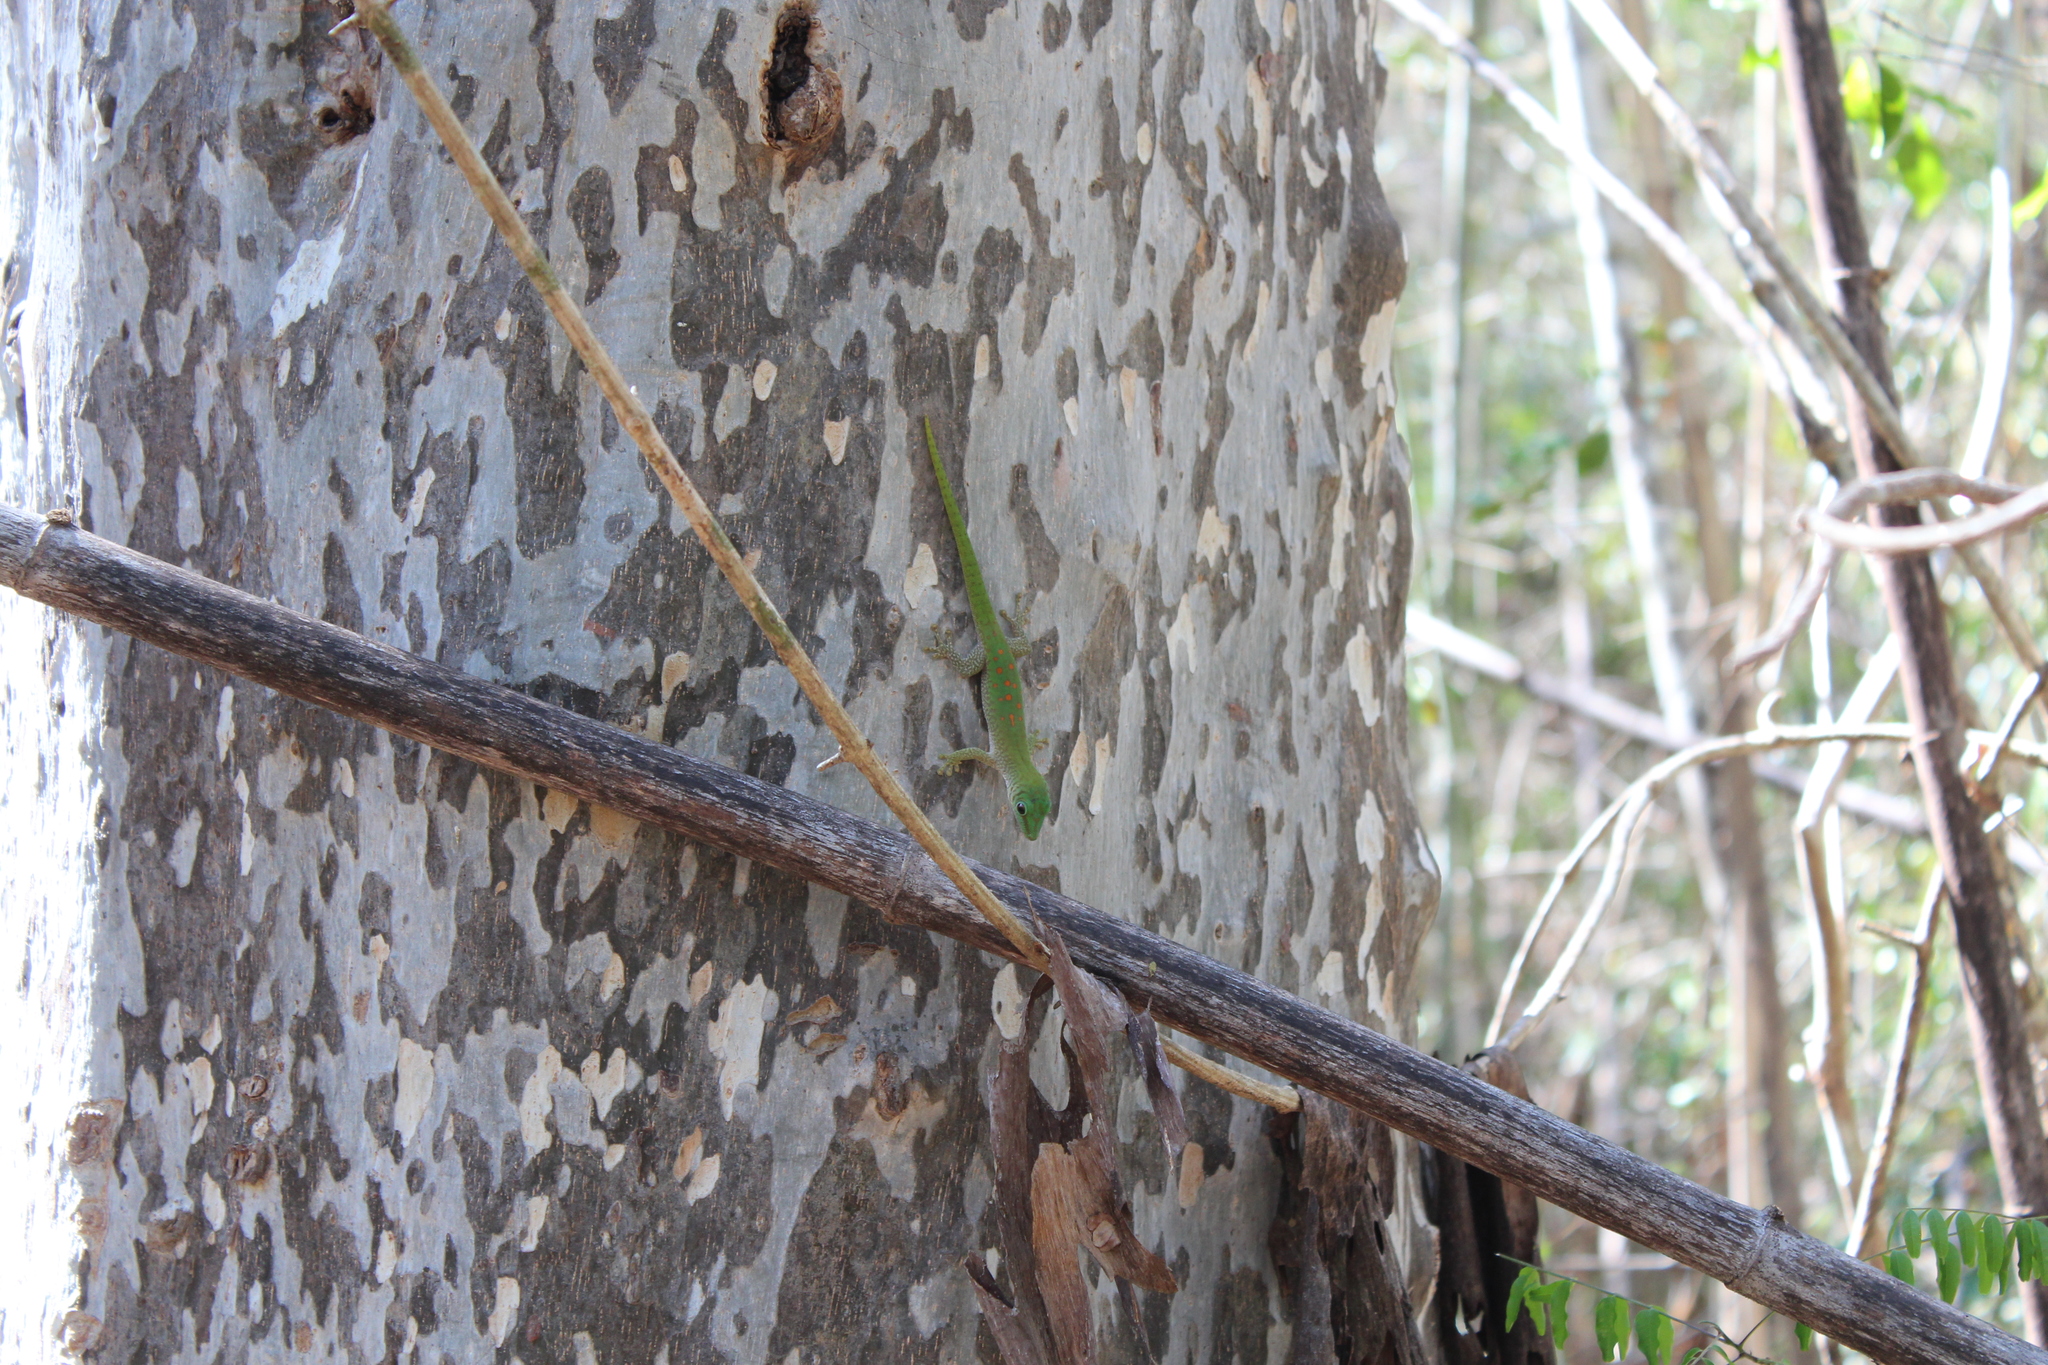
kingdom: Animalia
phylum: Chordata
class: Squamata
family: Gekkonidae
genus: Phelsuma
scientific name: Phelsuma kochi
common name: Madagascar day gecko
